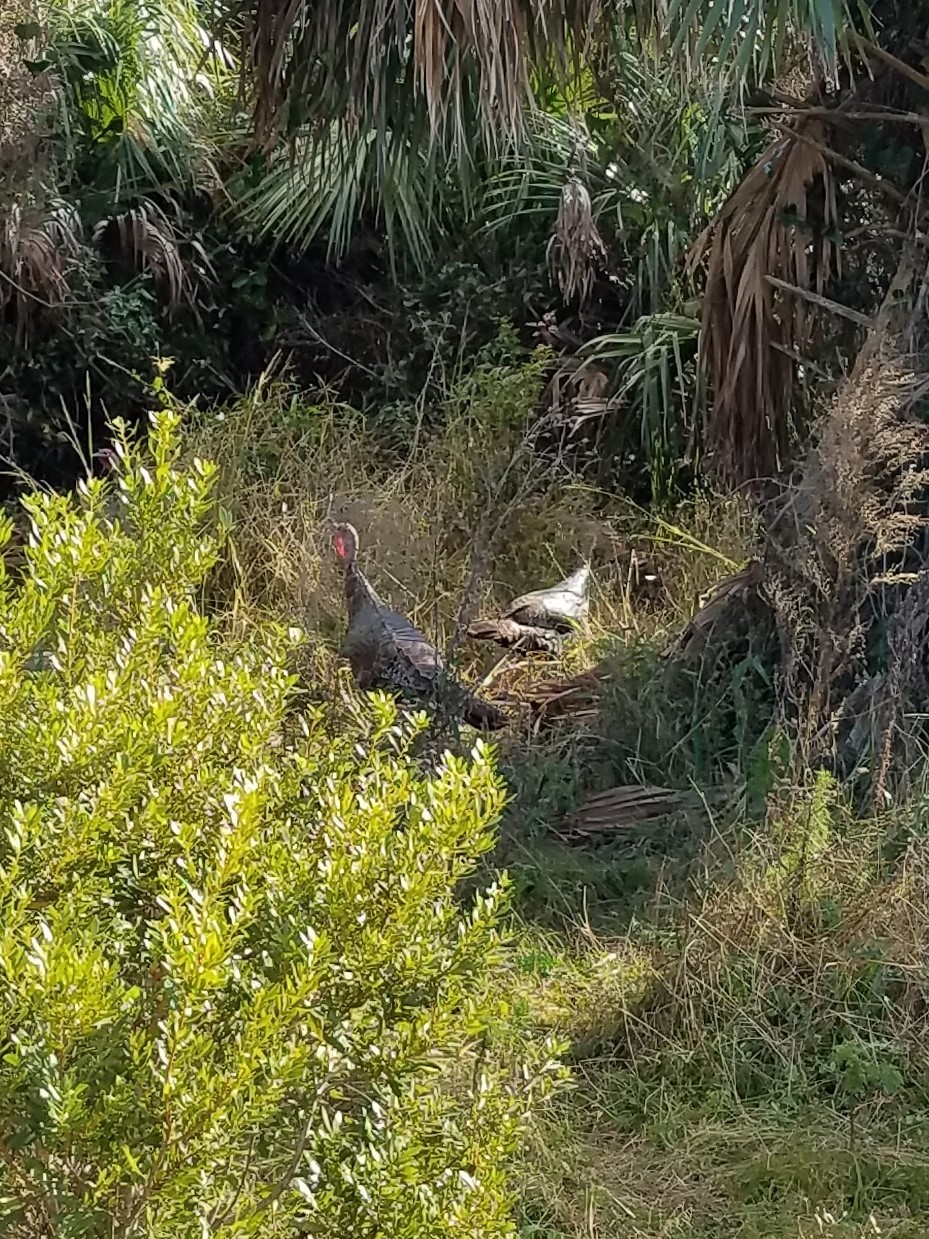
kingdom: Animalia
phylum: Chordata
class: Aves
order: Galliformes
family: Phasianidae
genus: Meleagris
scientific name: Meleagris gallopavo
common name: Wild turkey
